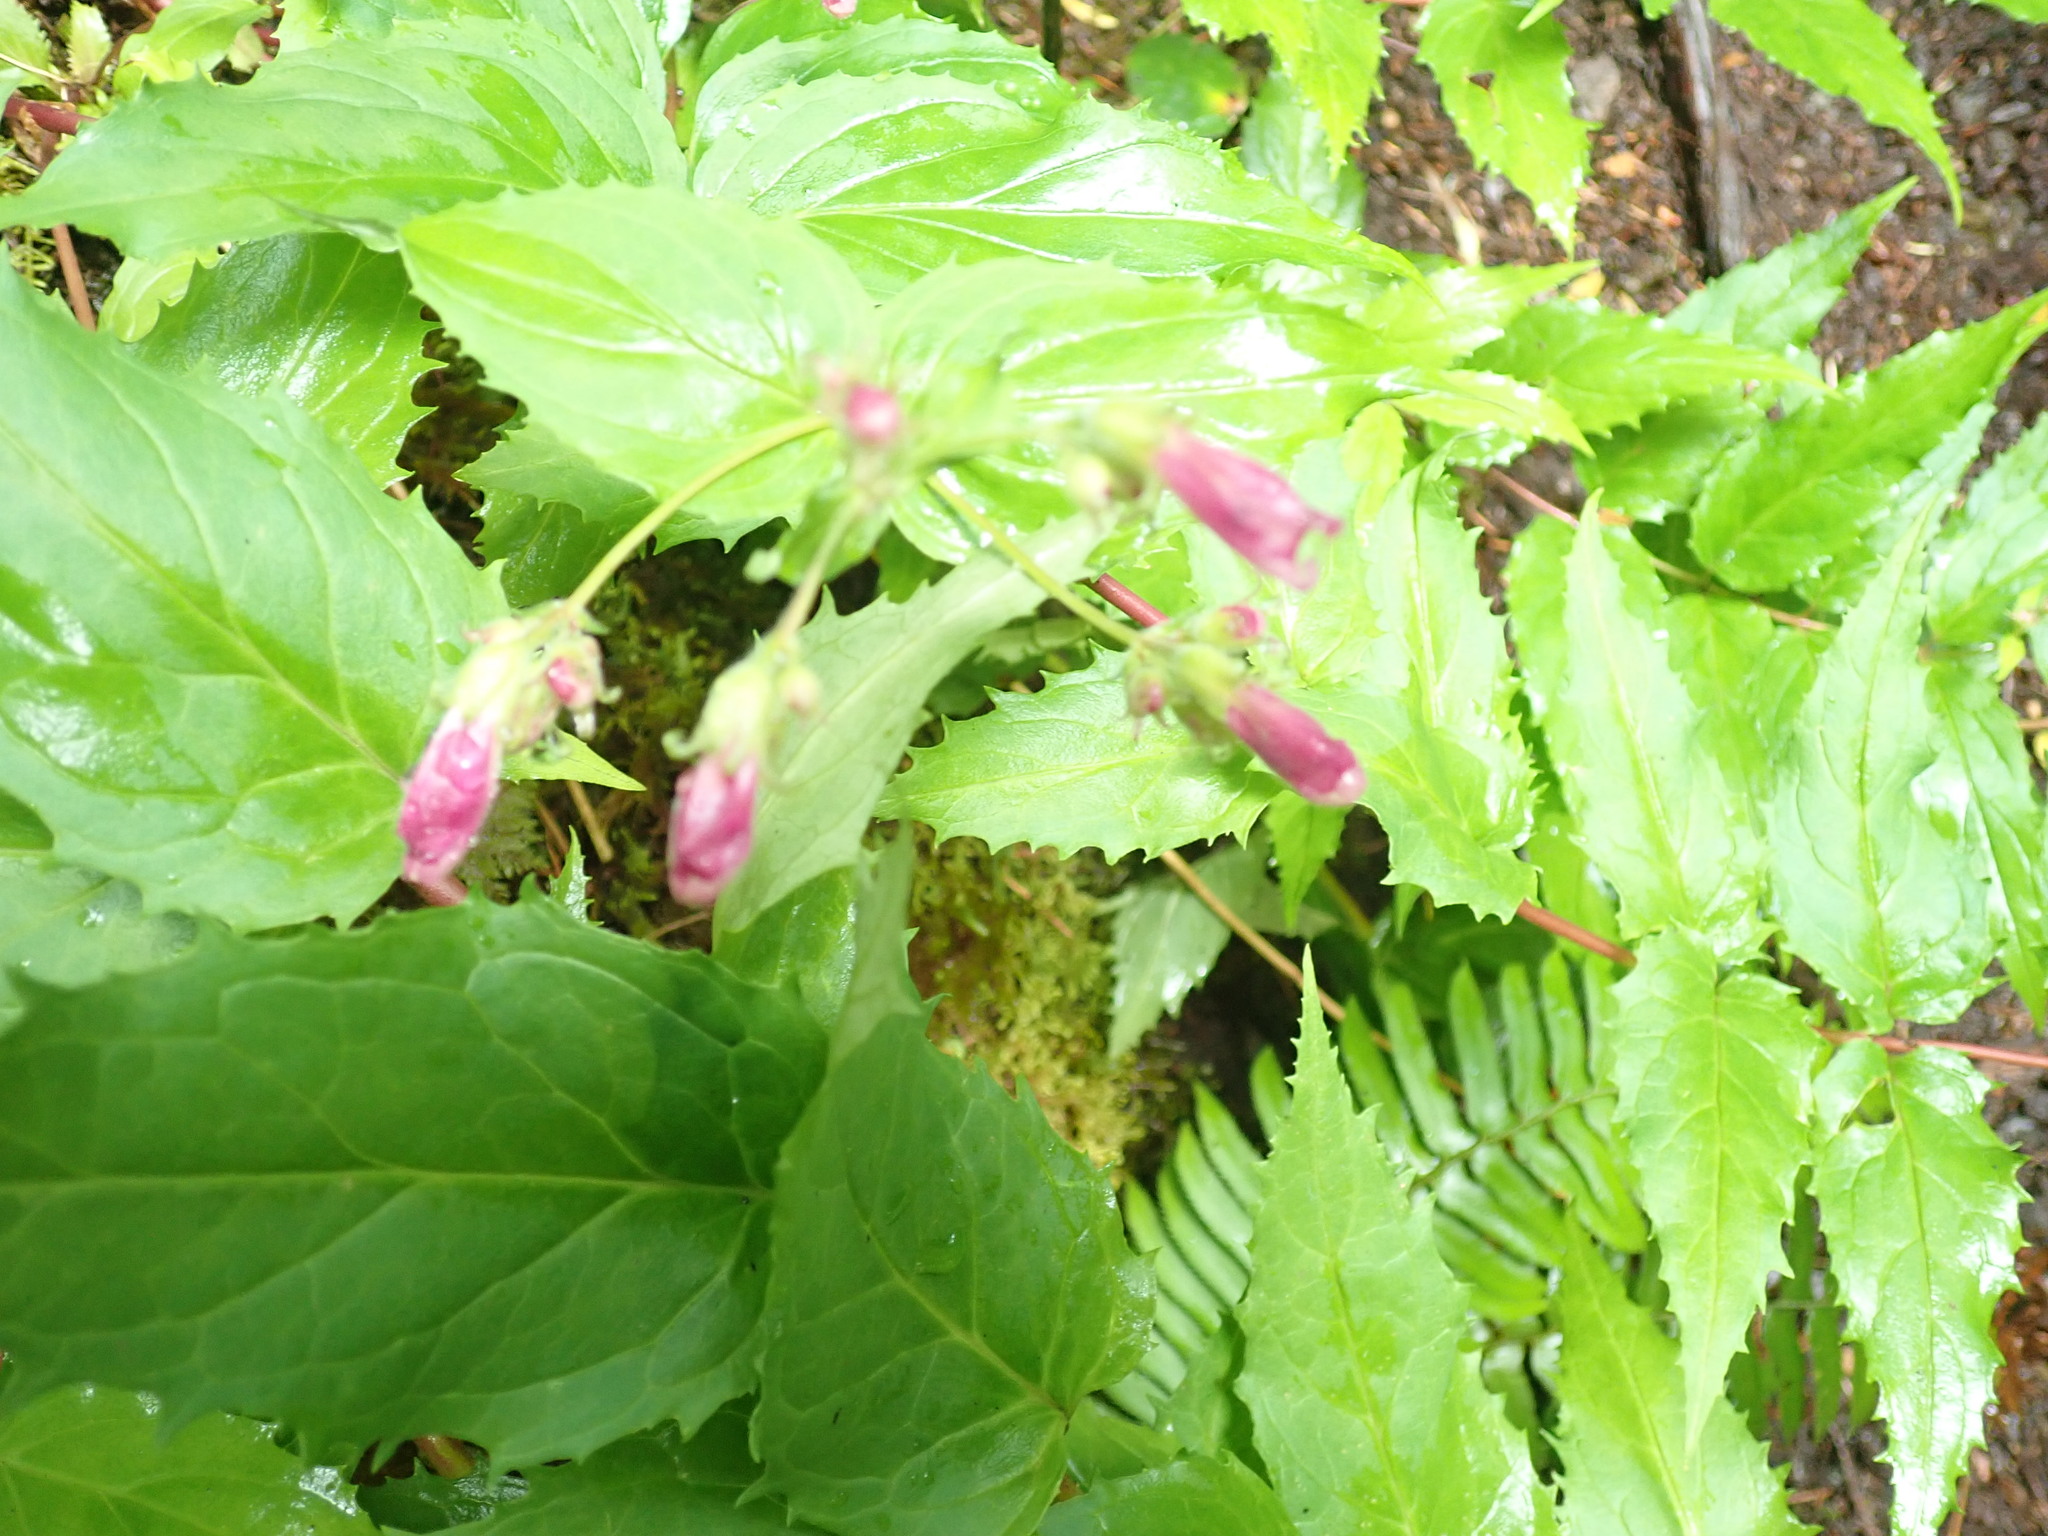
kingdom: Plantae
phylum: Tracheophyta
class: Magnoliopsida
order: Lamiales
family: Plantaginaceae
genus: Nothochelone
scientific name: Nothochelone nemorosa
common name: Woodland beardtongue
